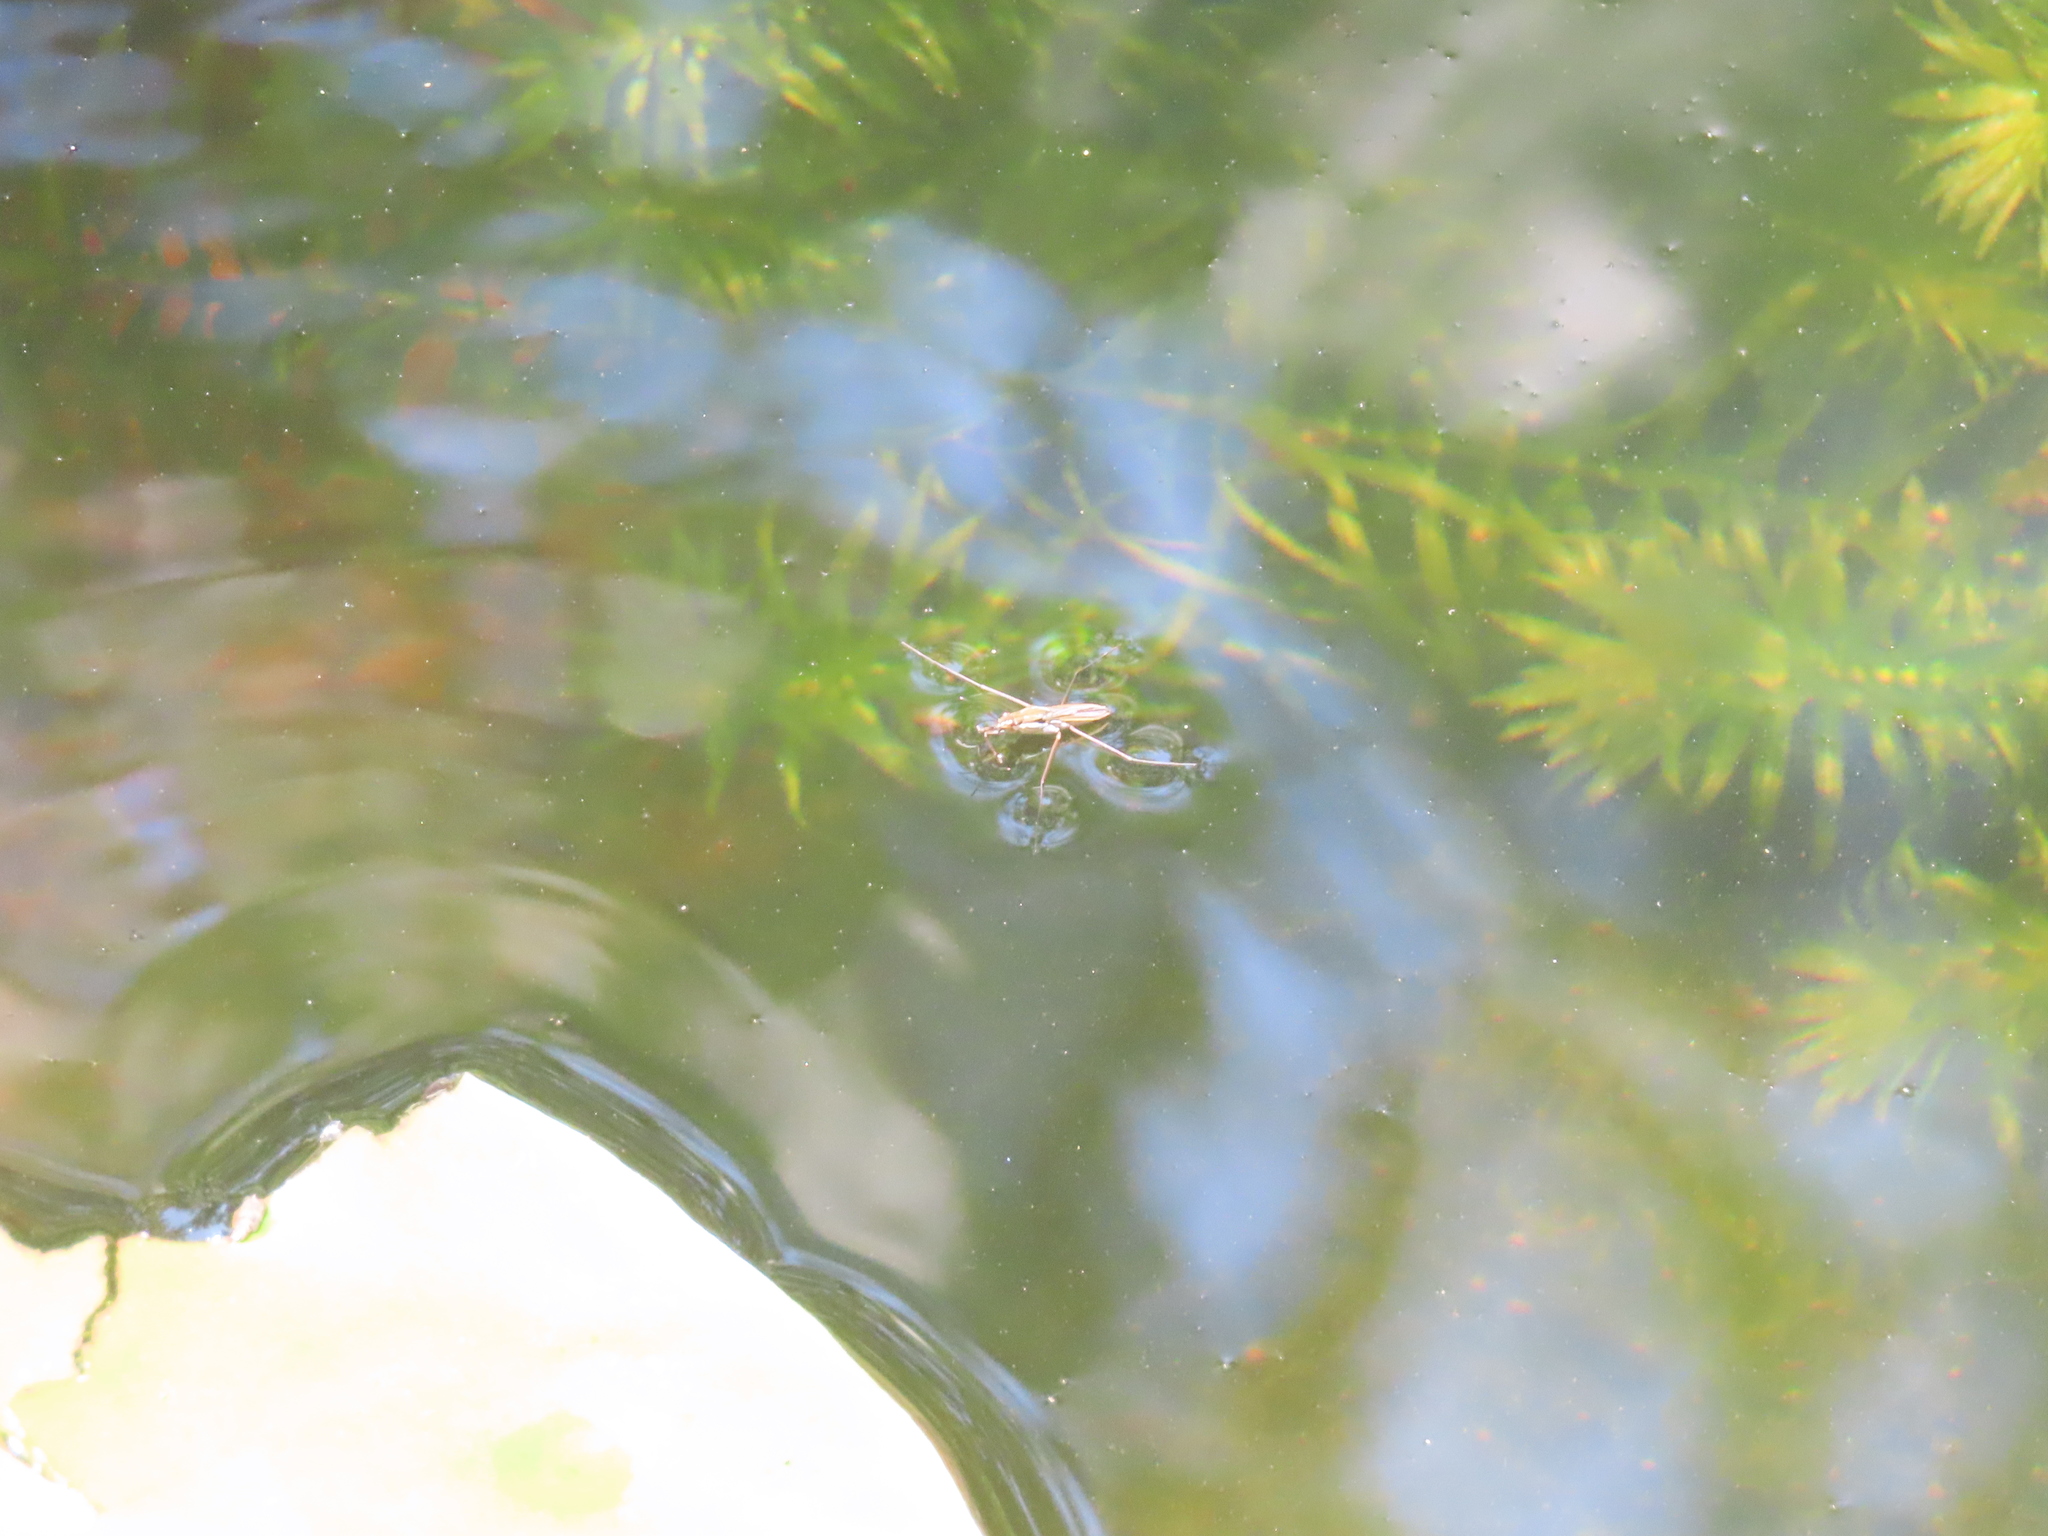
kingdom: Animalia
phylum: Arthropoda
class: Insecta
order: Hemiptera
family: Gerridae
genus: Gerris
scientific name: Gerris
